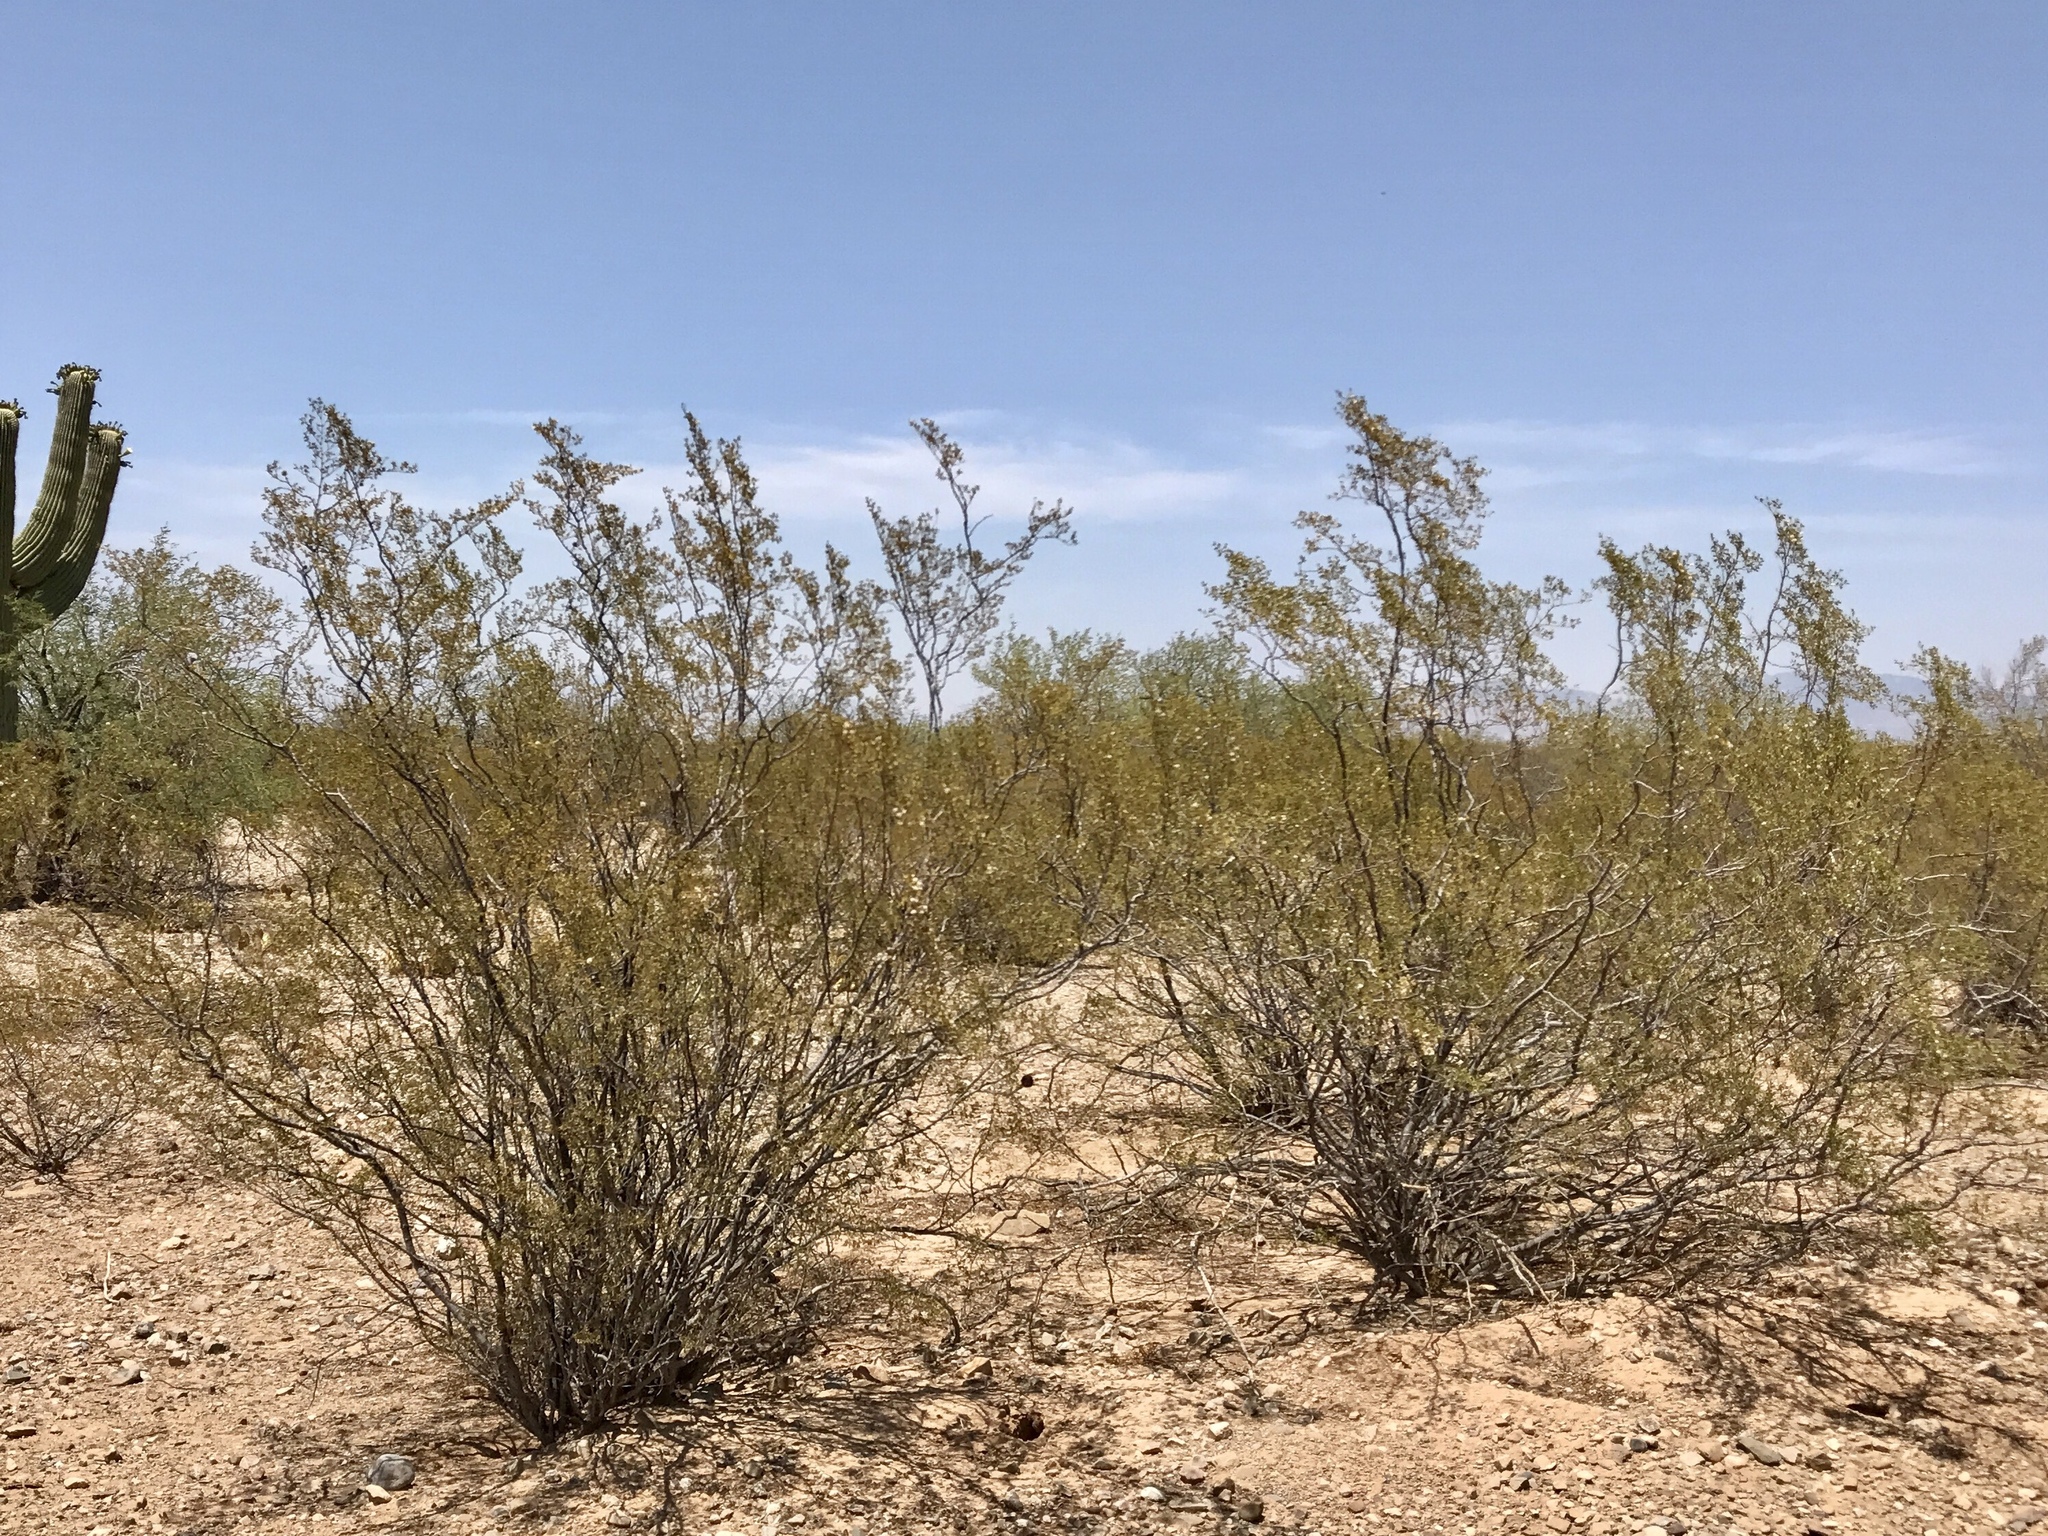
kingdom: Plantae
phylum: Tracheophyta
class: Magnoliopsida
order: Zygophyllales
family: Zygophyllaceae
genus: Larrea
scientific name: Larrea tridentata
